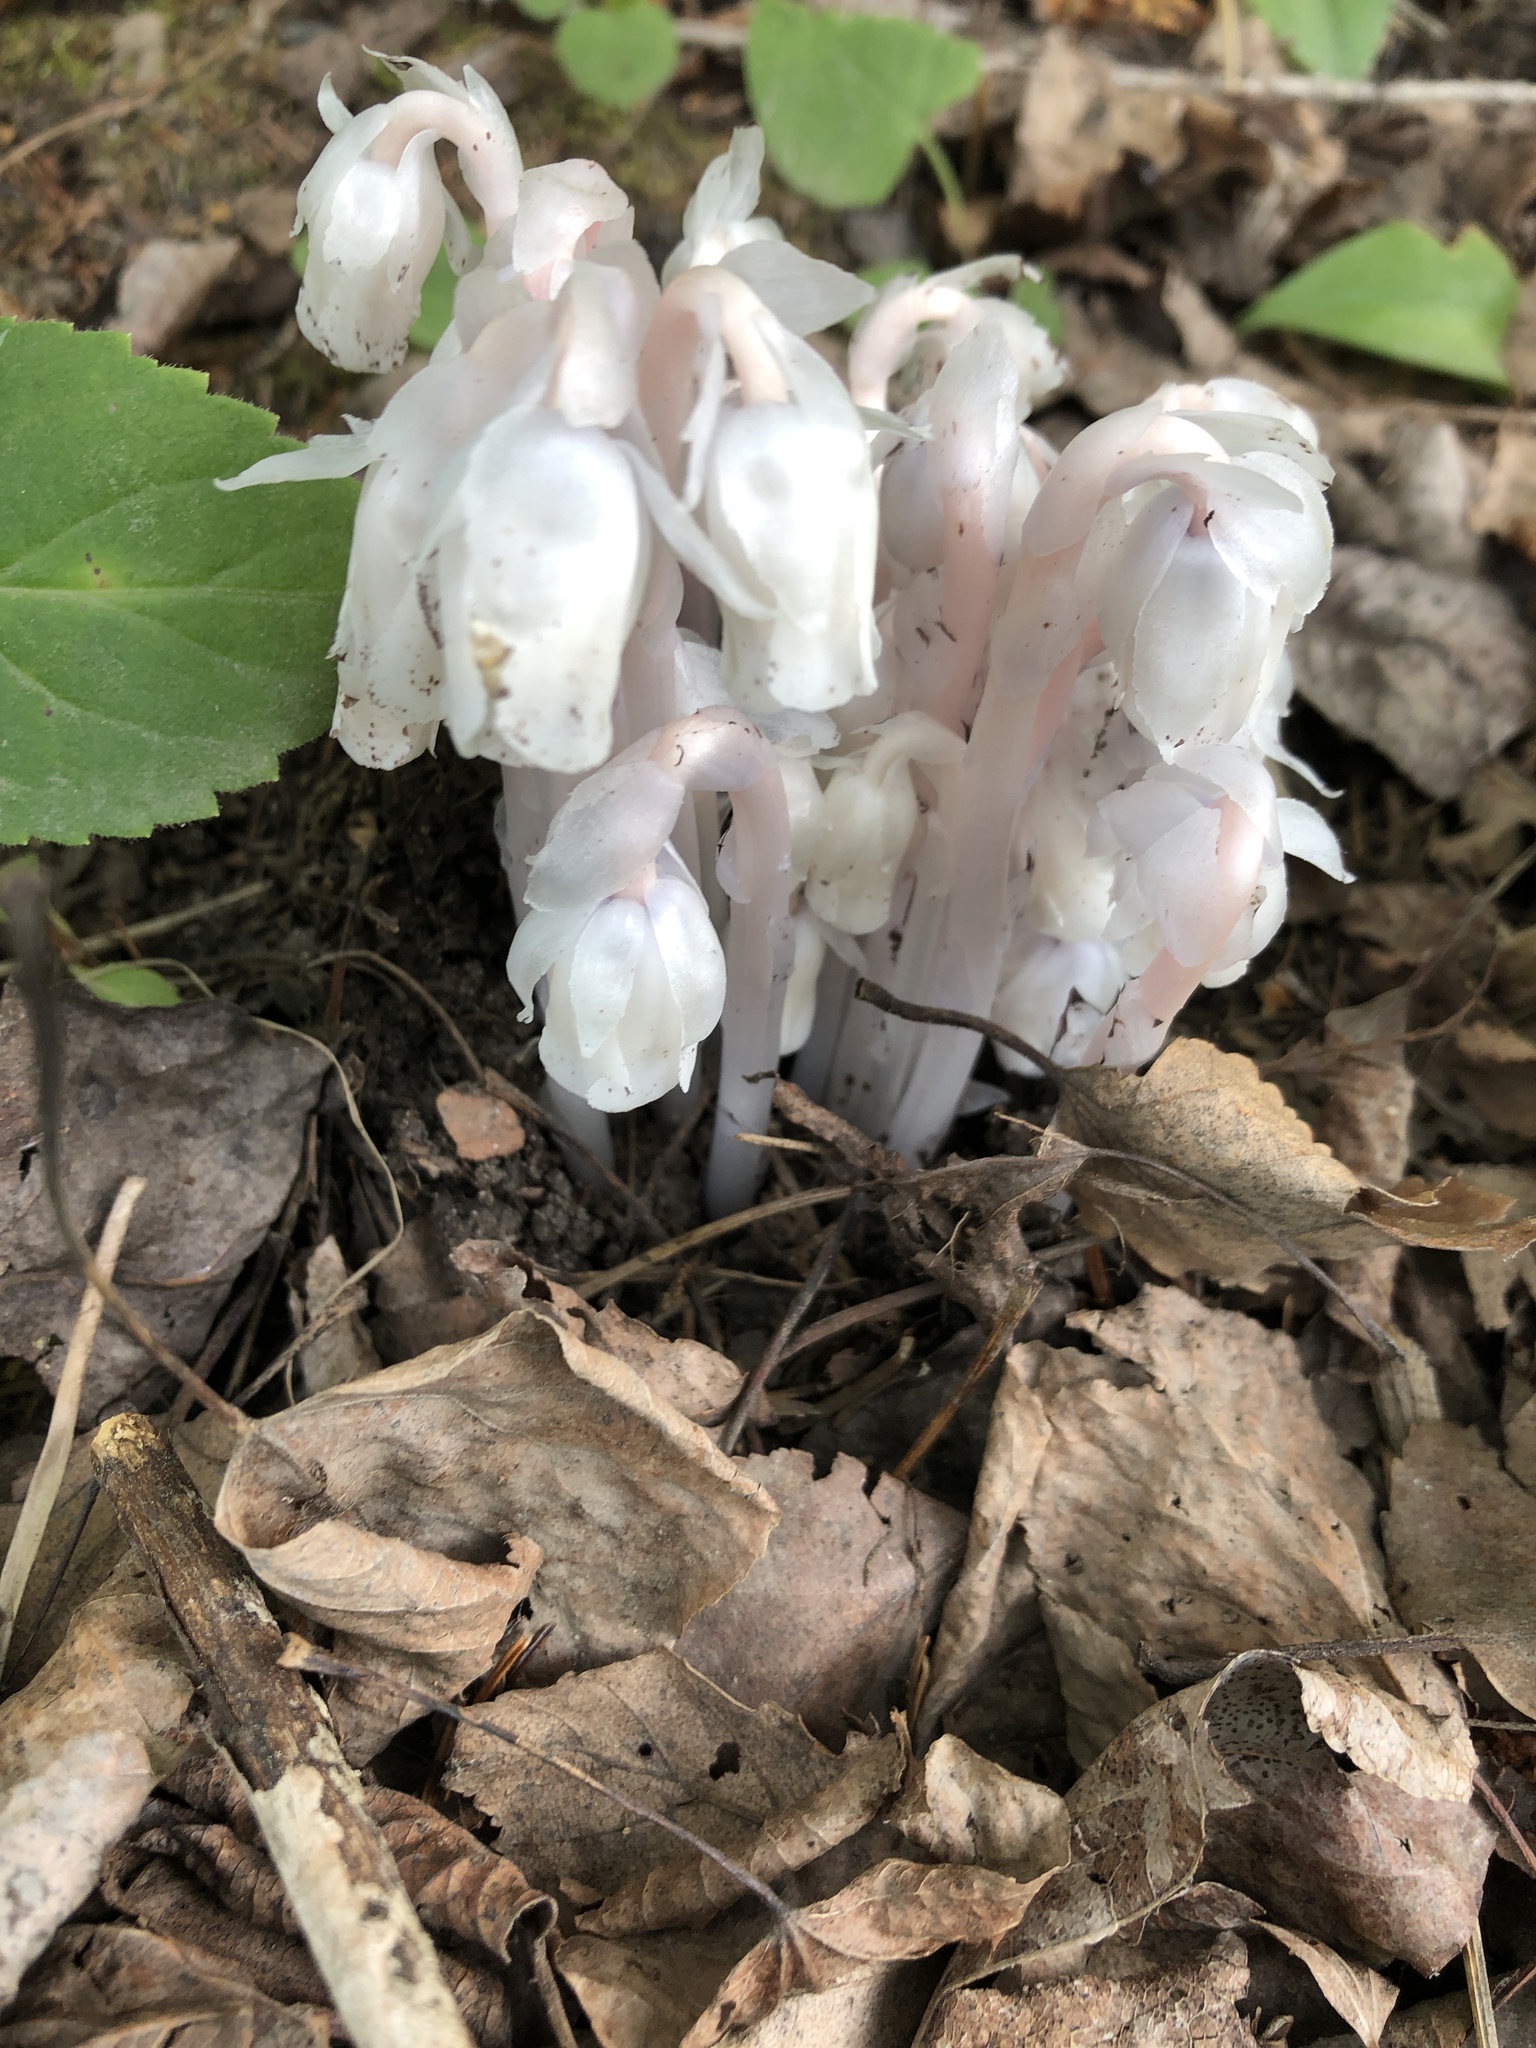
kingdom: Plantae
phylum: Tracheophyta
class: Magnoliopsida
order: Ericales
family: Ericaceae
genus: Monotropa
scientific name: Monotropa uniflora
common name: Convulsion root
